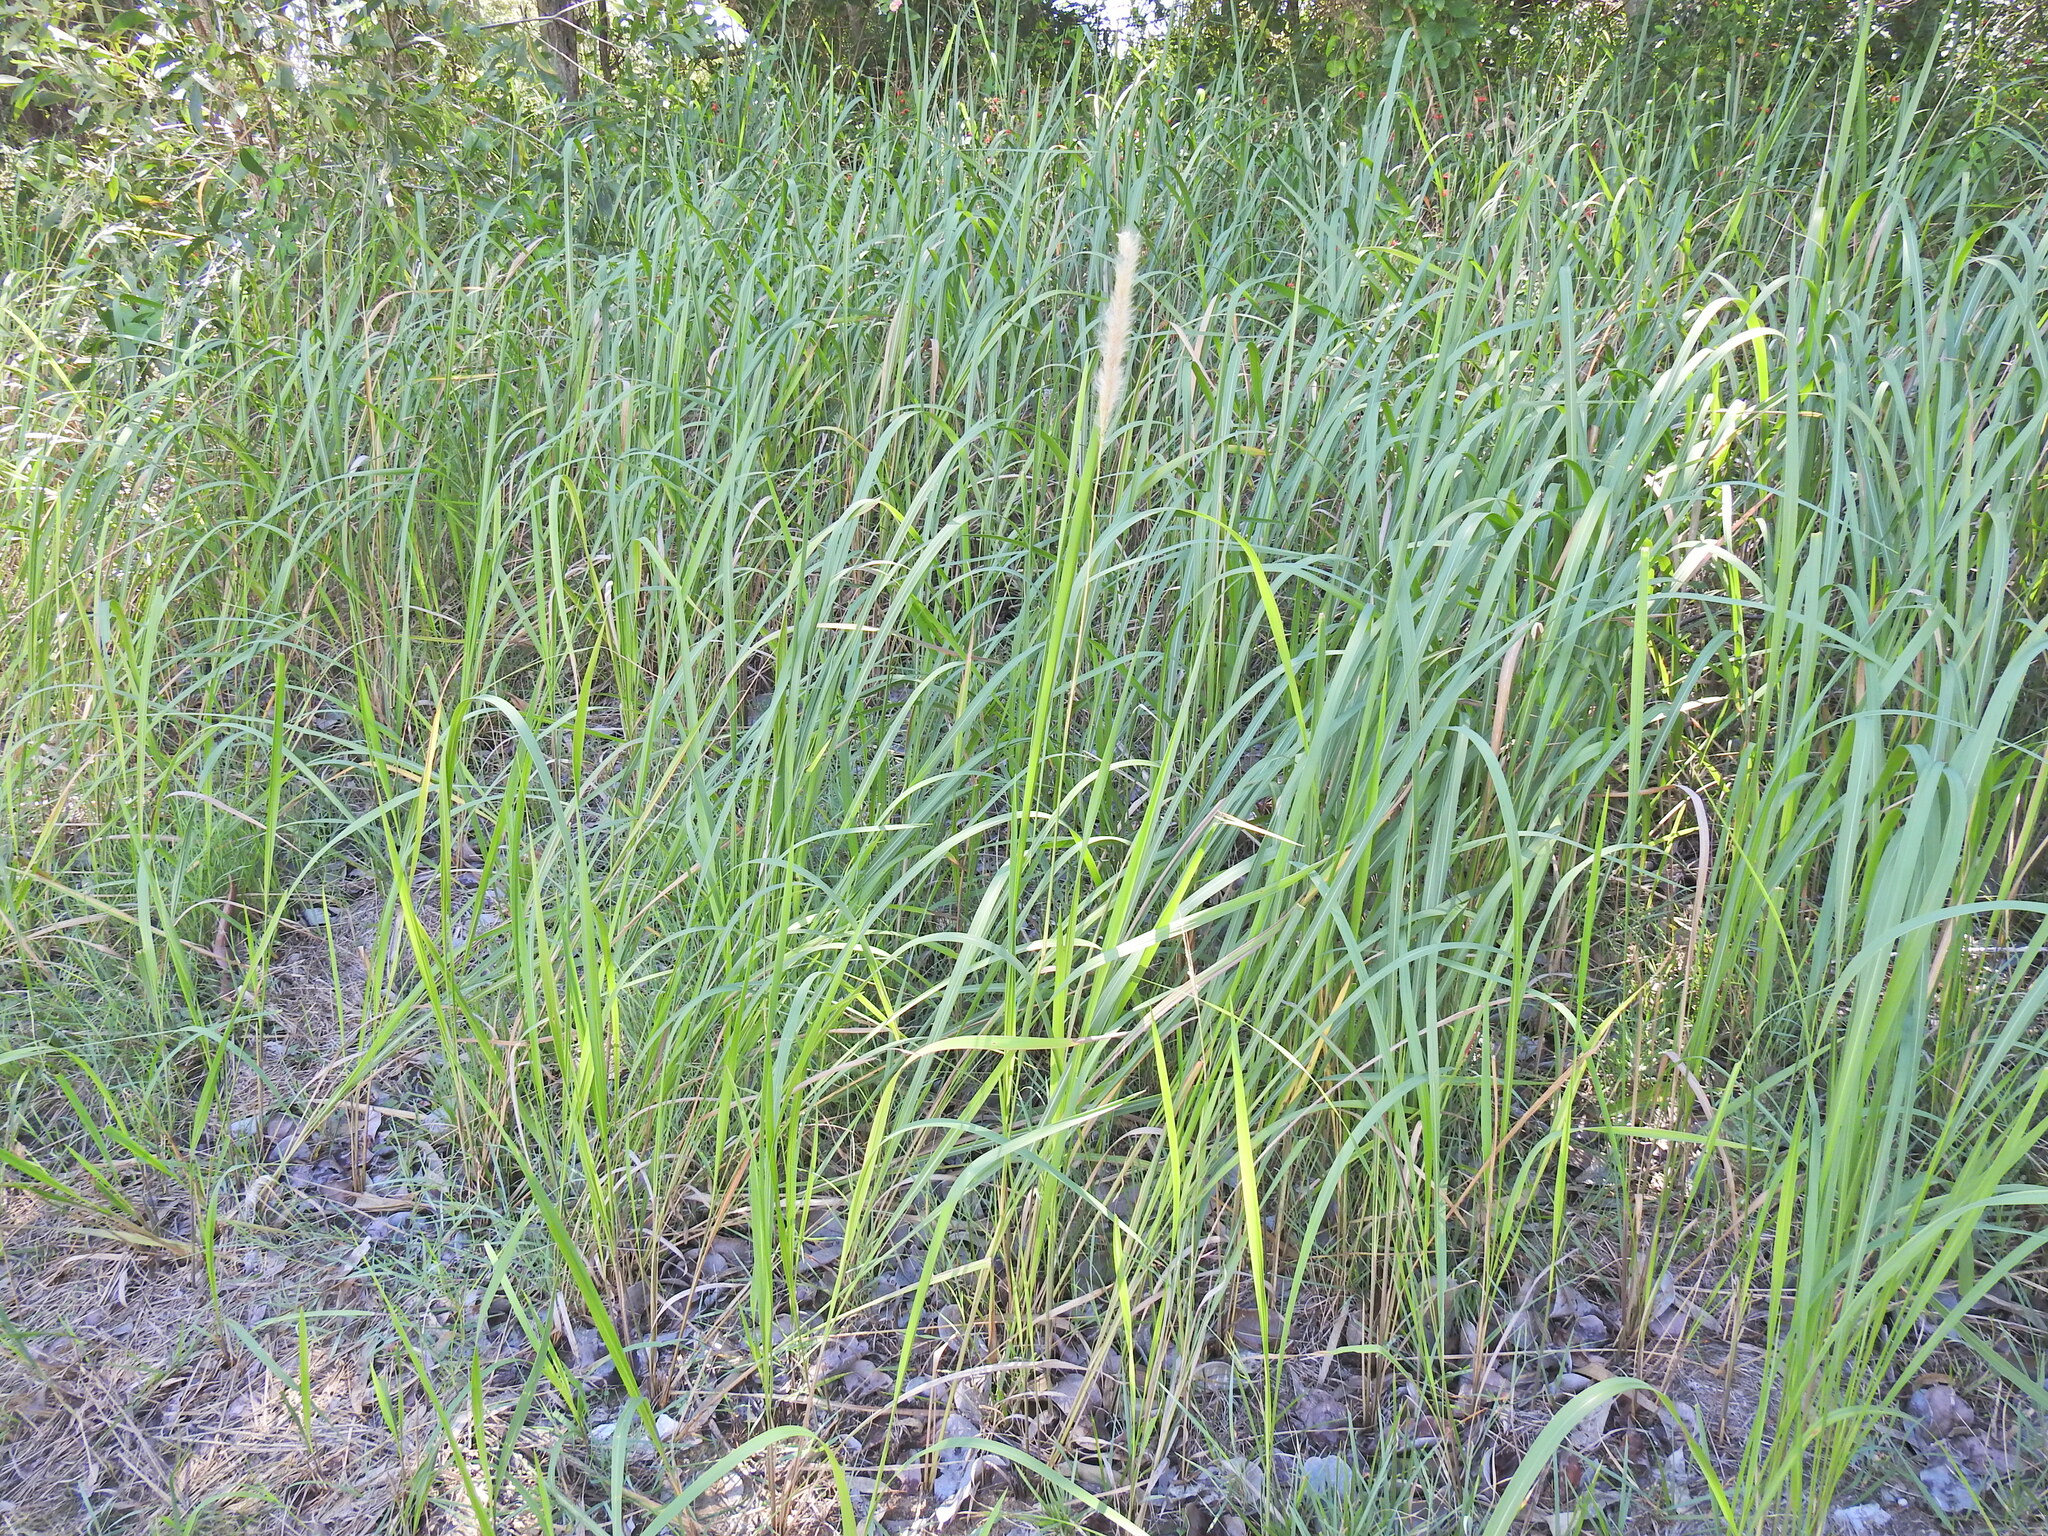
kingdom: Plantae
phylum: Tracheophyta
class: Liliopsida
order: Poales
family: Poaceae
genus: Imperata
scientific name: Imperata cylindrica
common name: Cogongrass
